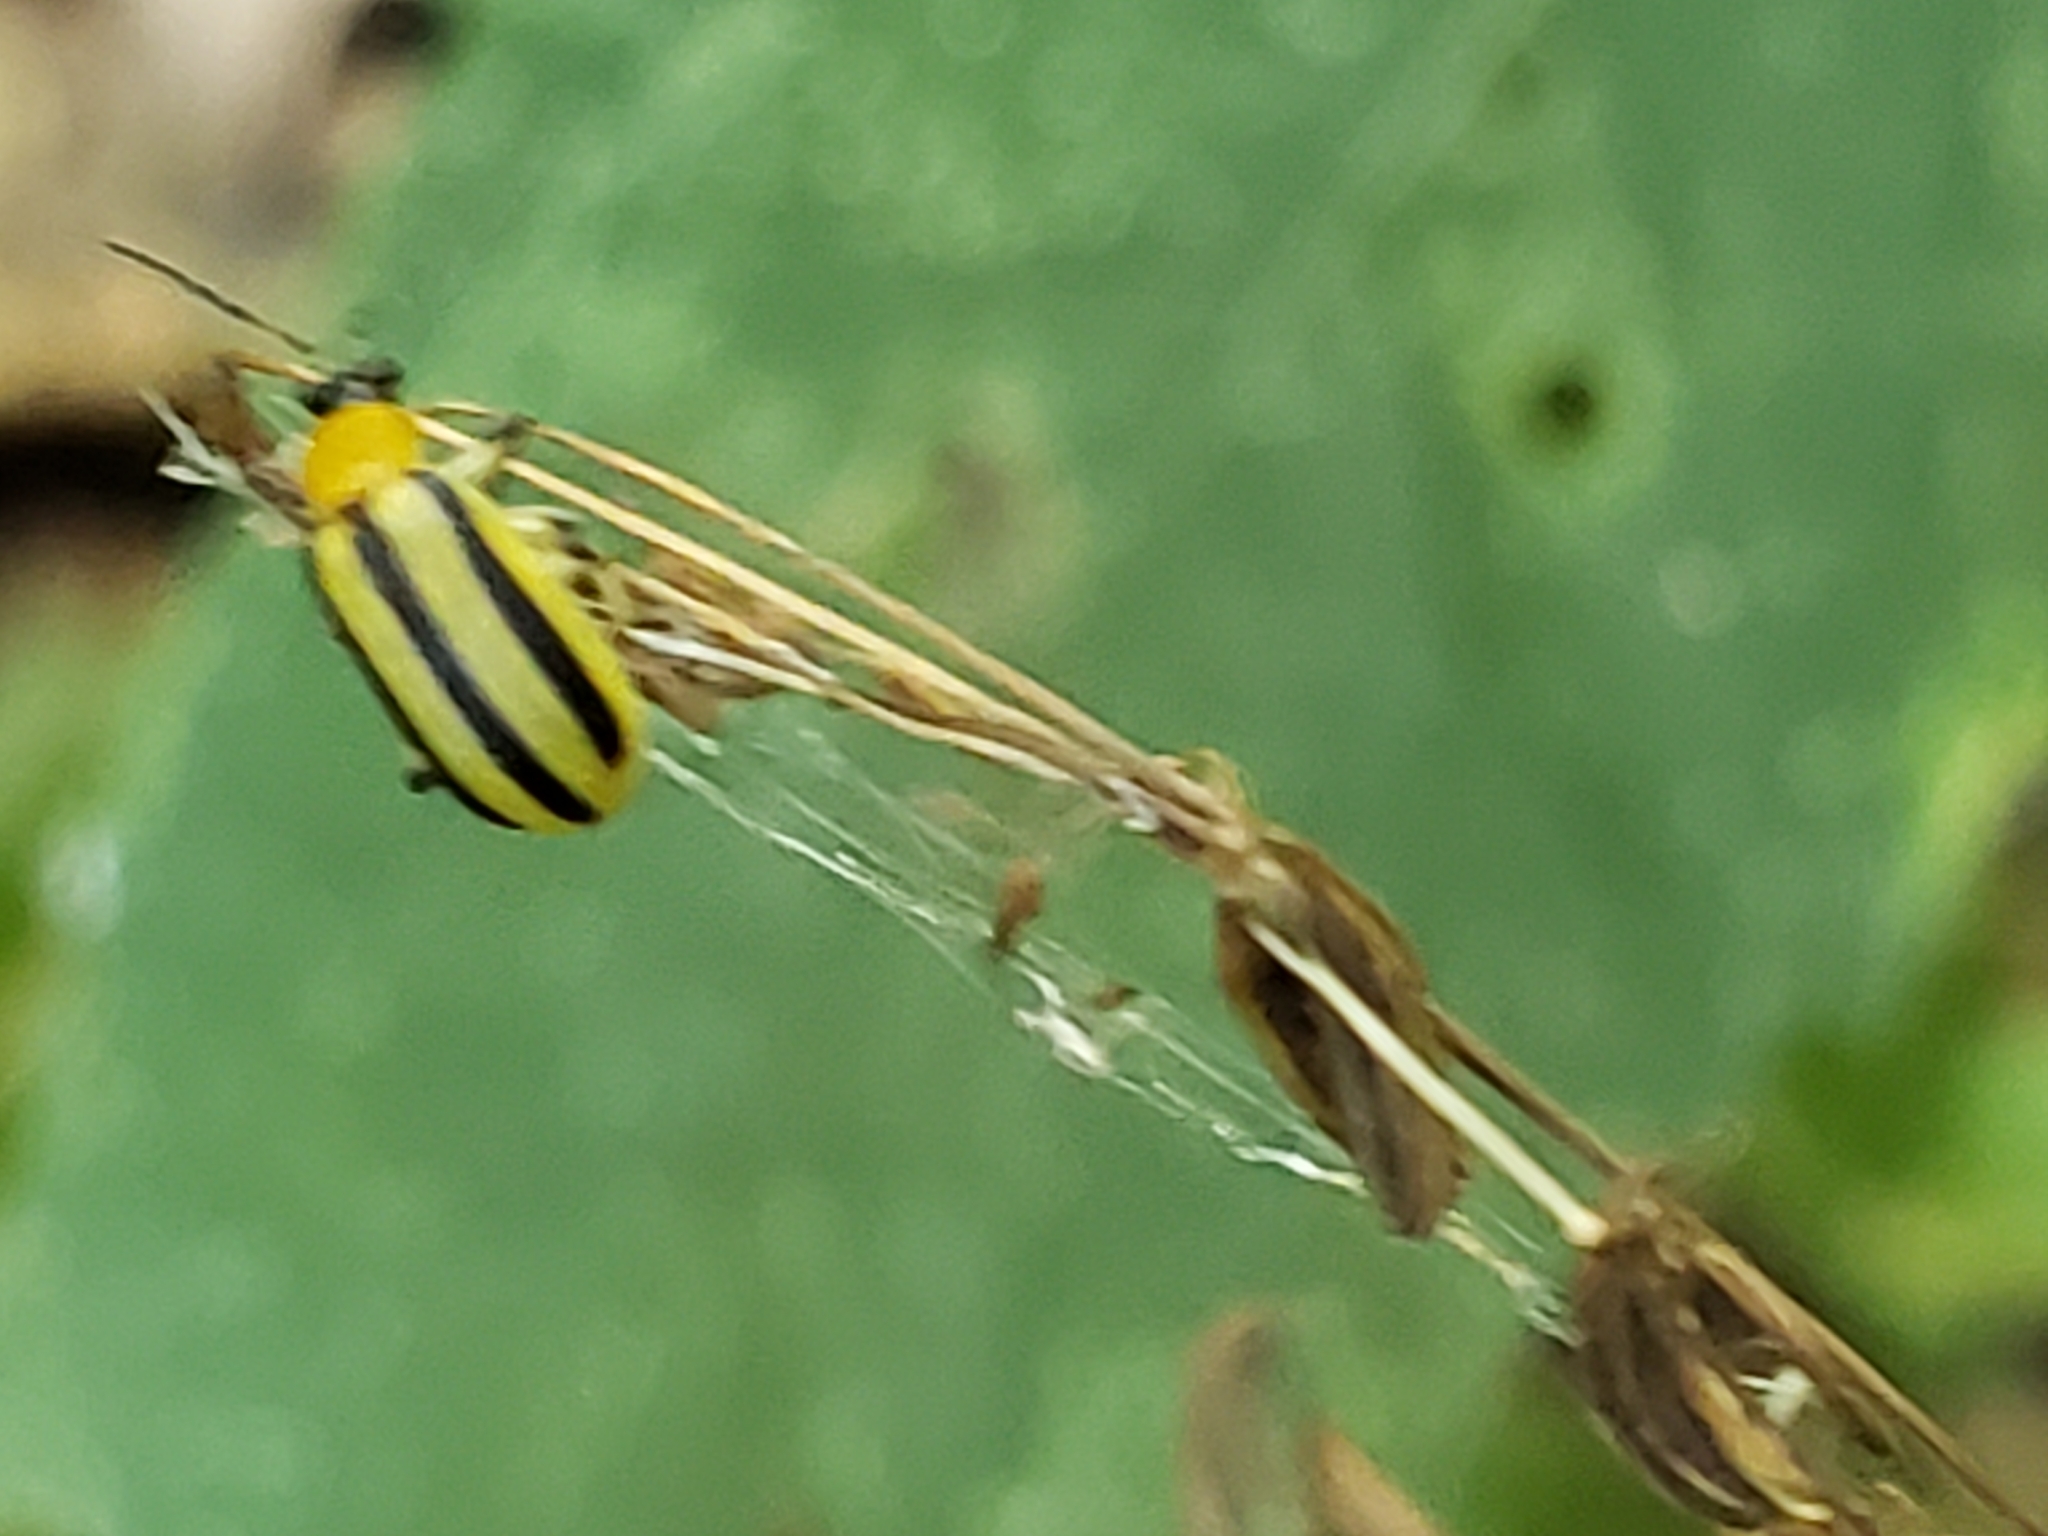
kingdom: Animalia
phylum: Arthropoda
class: Insecta
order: Coleoptera
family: Chrysomelidae
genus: Acalymma
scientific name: Acalymma vittatum
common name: Striped cucumber beetle
